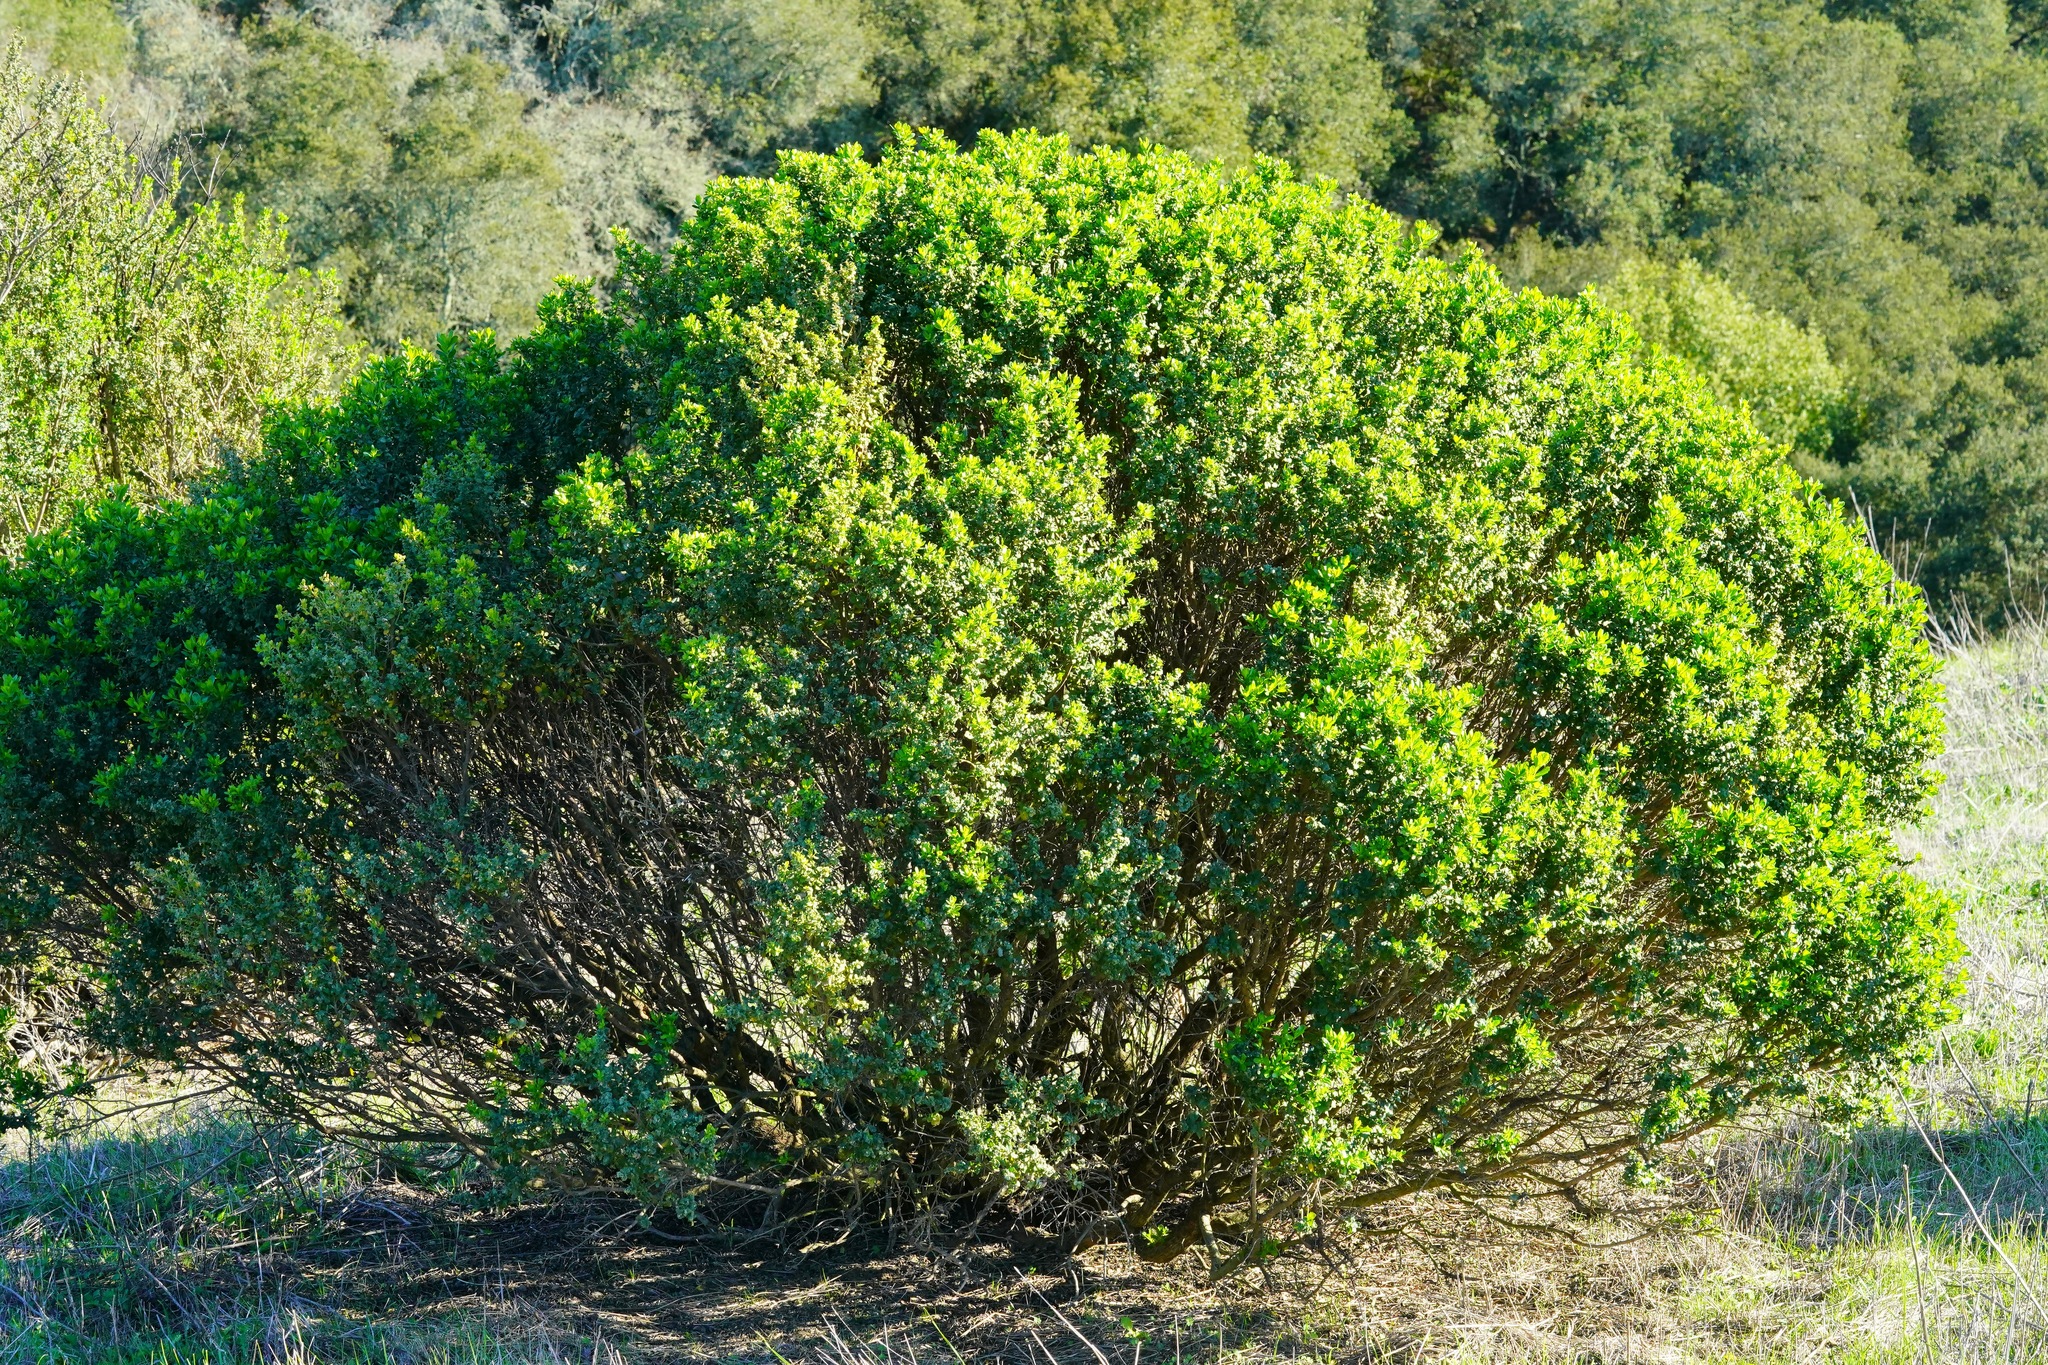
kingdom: Plantae
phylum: Tracheophyta
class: Magnoliopsida
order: Asterales
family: Asteraceae
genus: Baccharis
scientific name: Baccharis pilularis
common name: Coyotebrush
